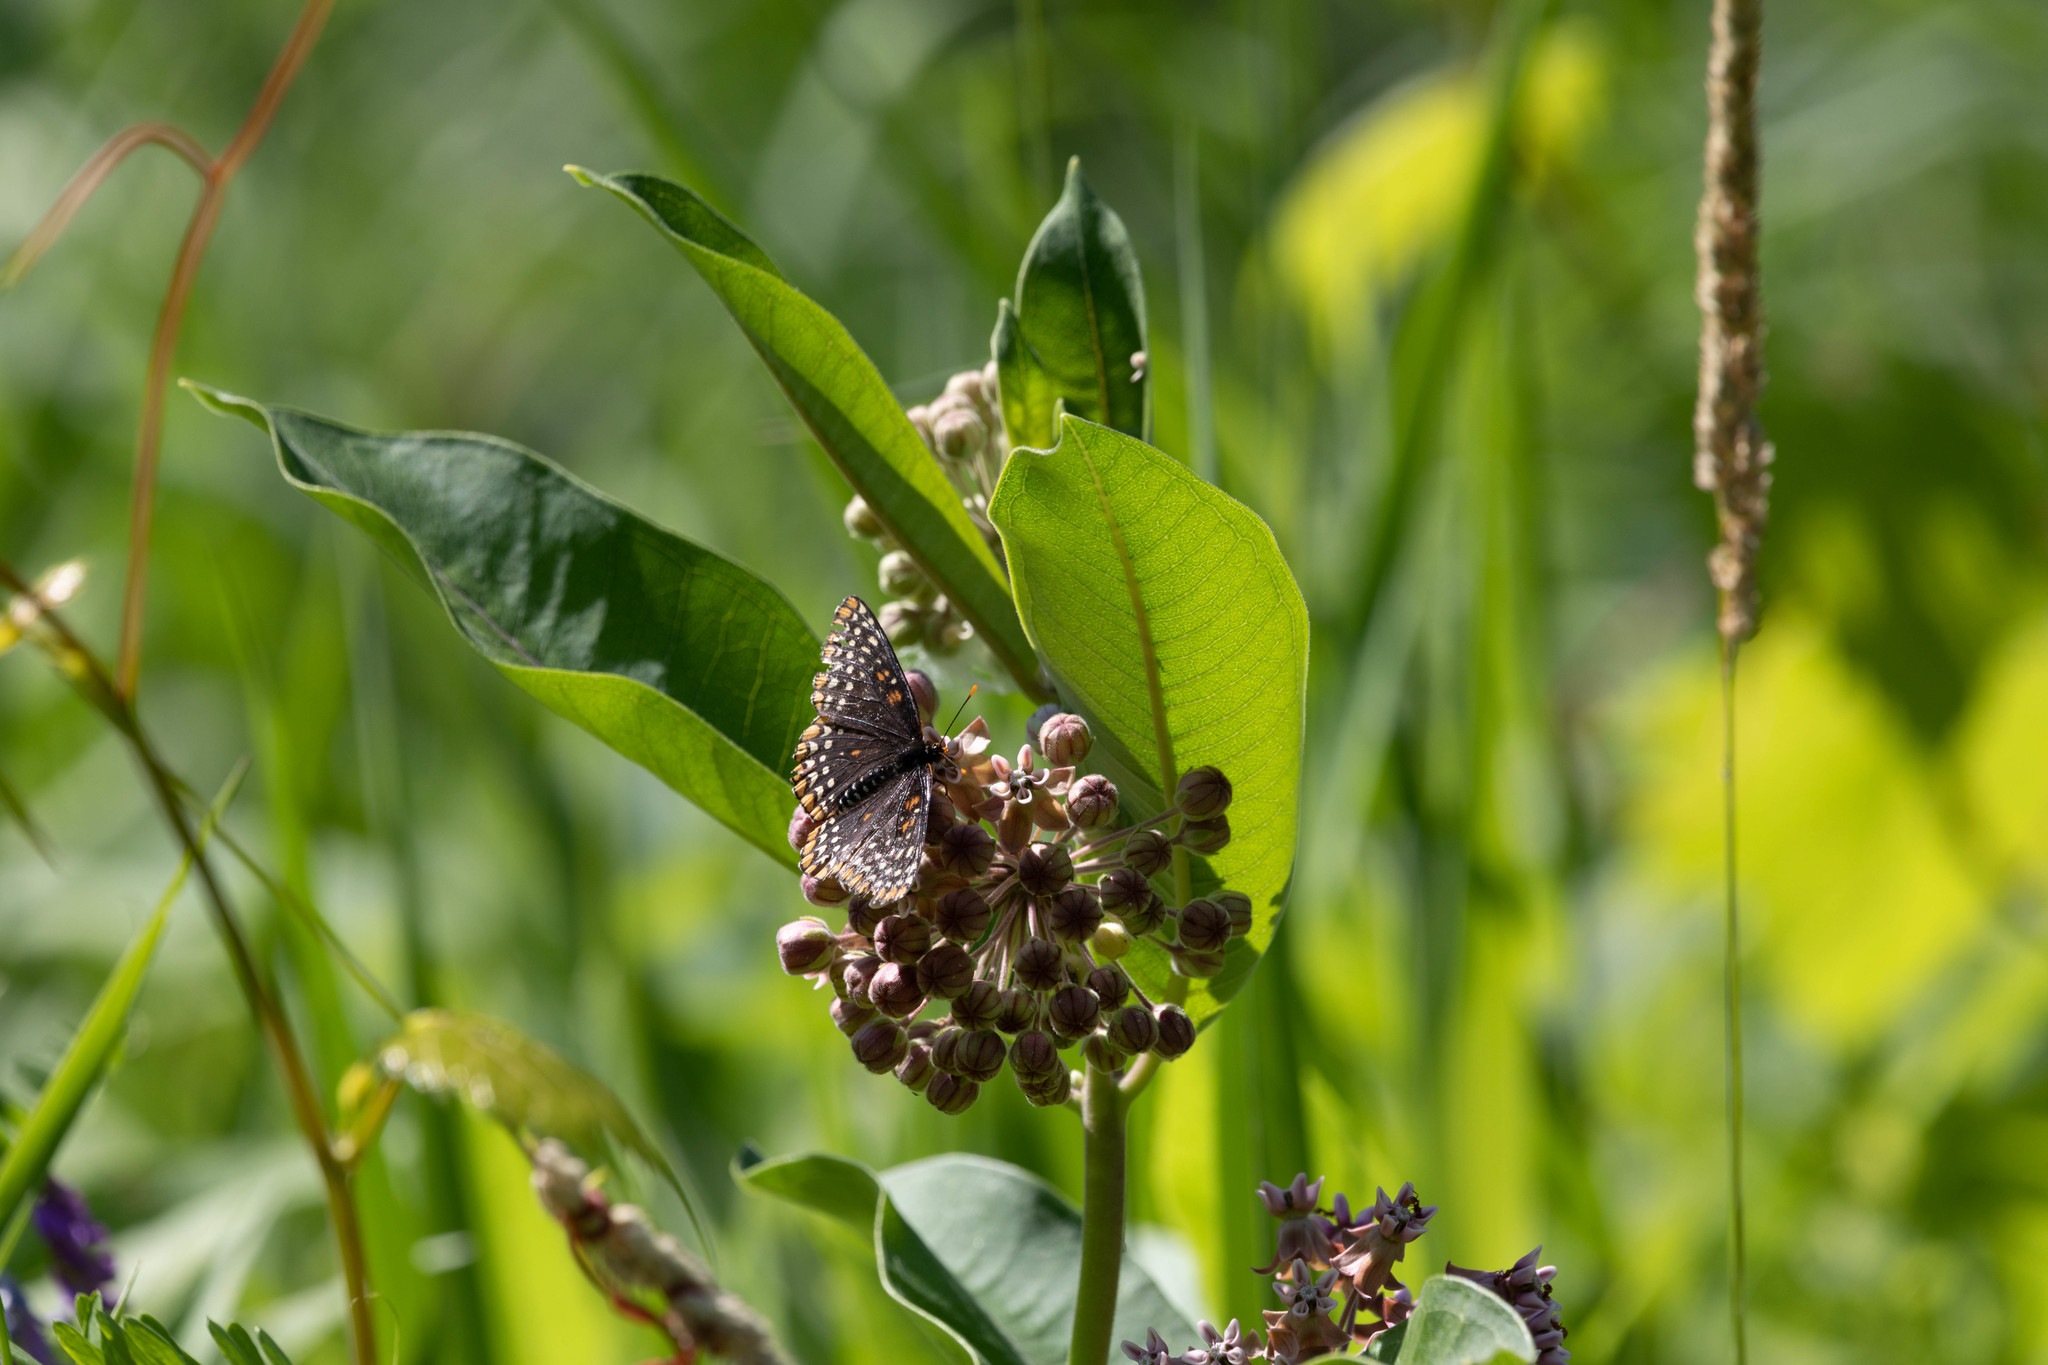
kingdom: Animalia
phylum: Arthropoda
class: Insecta
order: Lepidoptera
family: Nymphalidae
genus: Euphydryas
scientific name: Euphydryas phaeton
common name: Baltimore checkerspot
